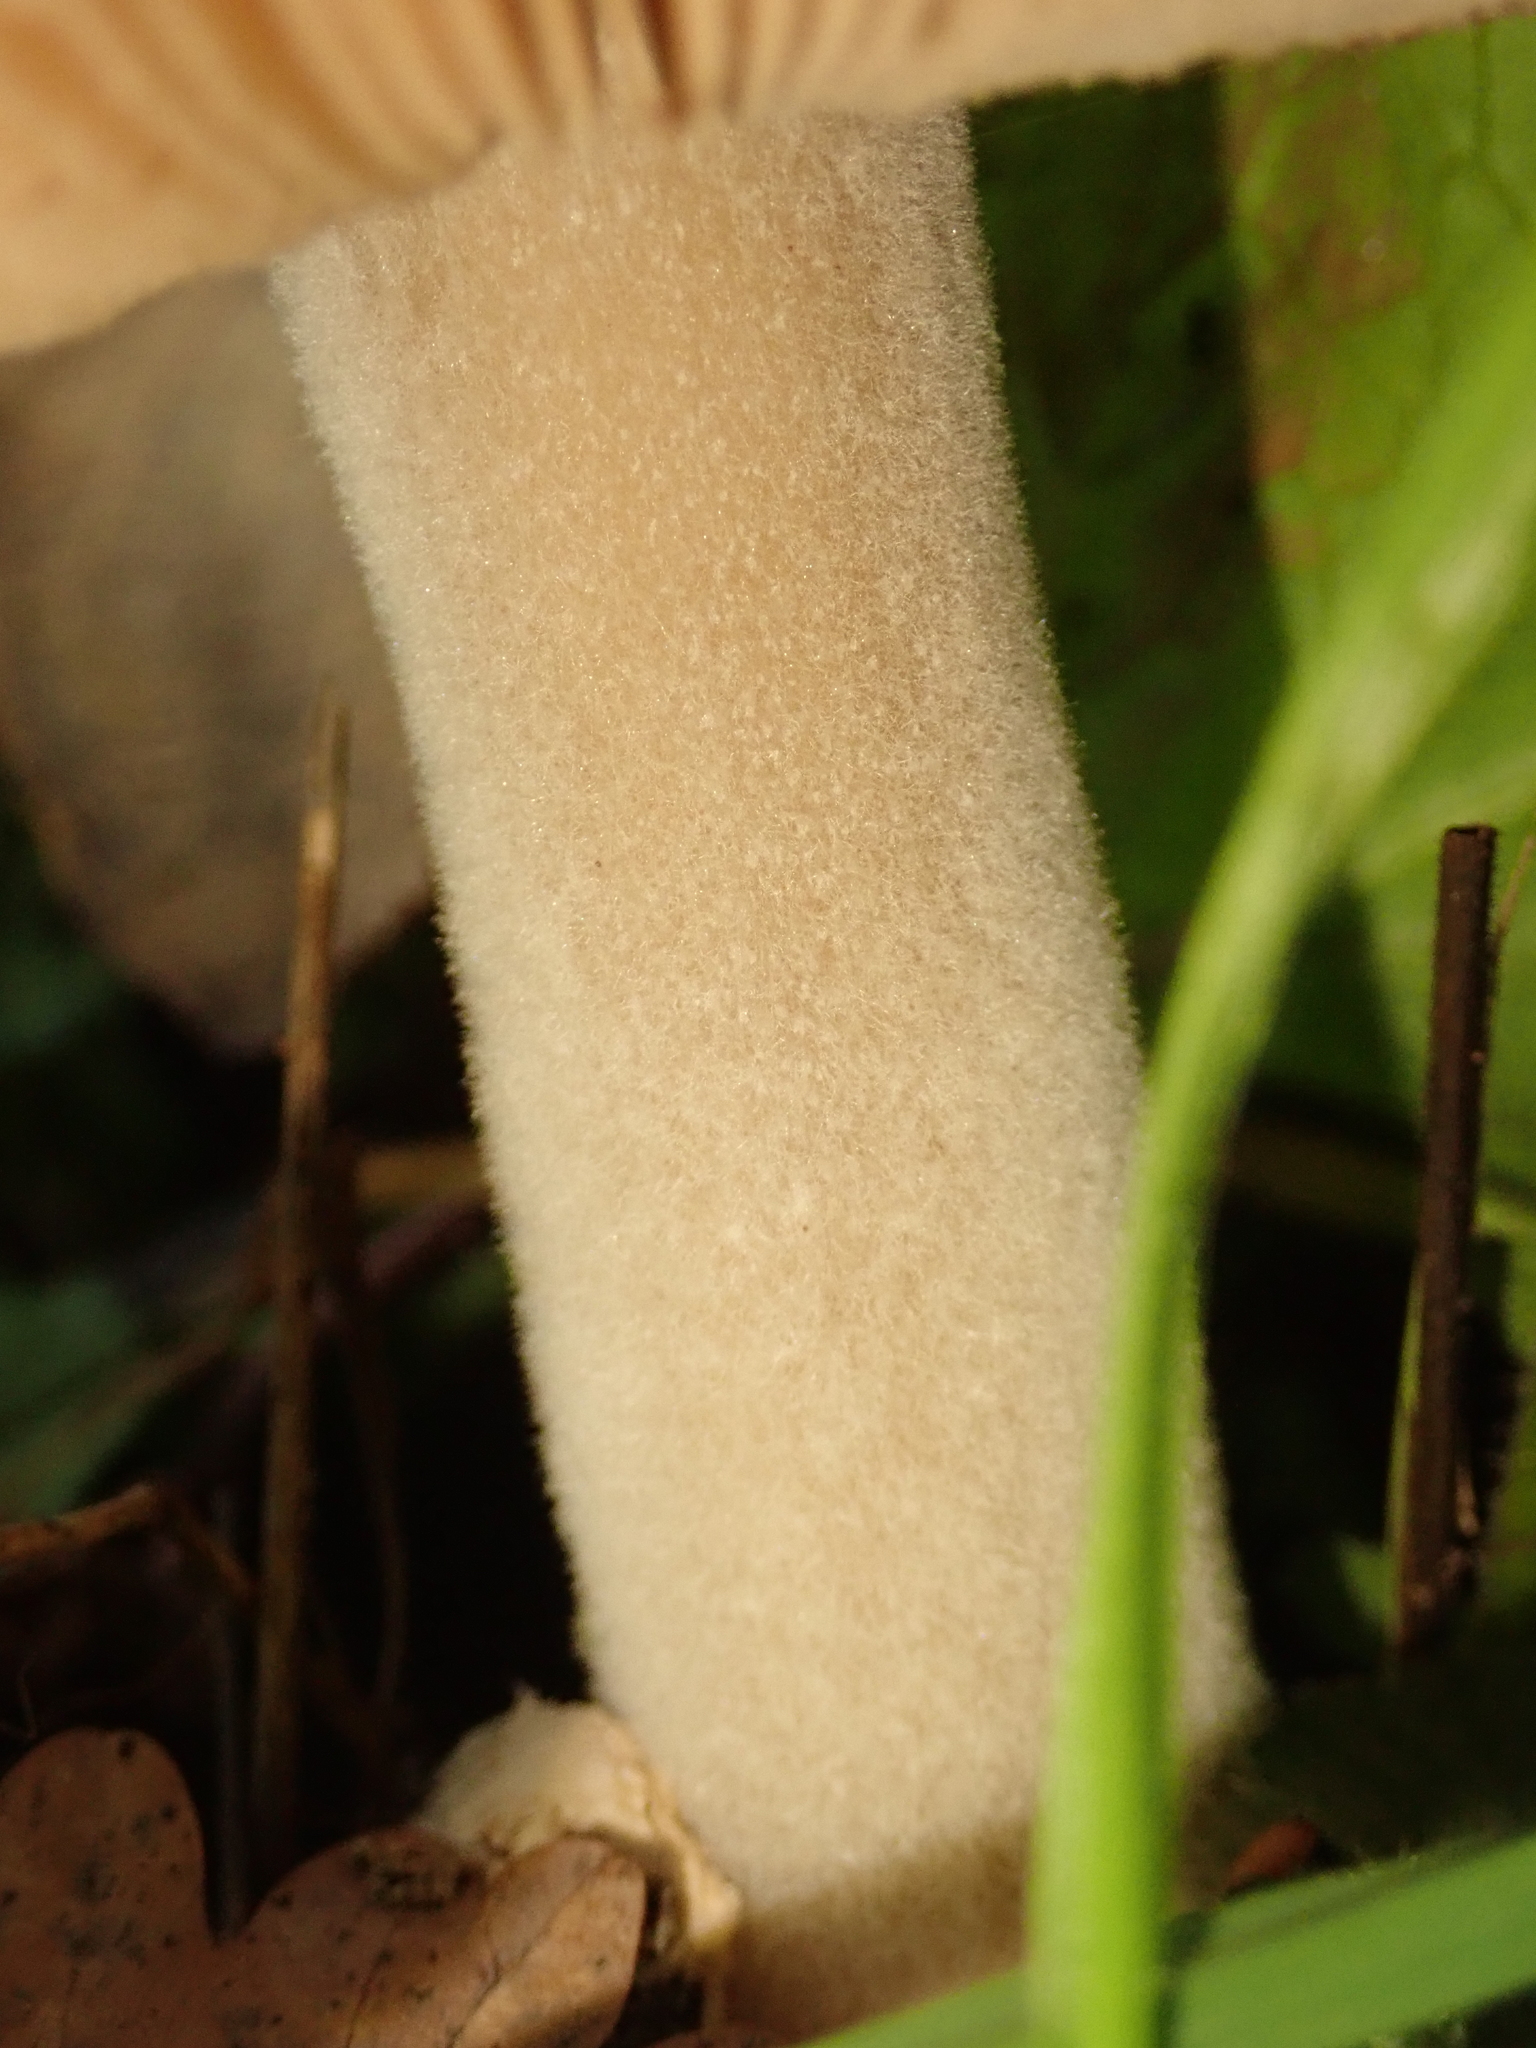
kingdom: Fungi
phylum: Basidiomycota
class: Agaricomycetes
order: Agaricales
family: Pluteaceae
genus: Volvopluteus
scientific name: Volvopluteus gloiocephalus
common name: Stubble rosegill
